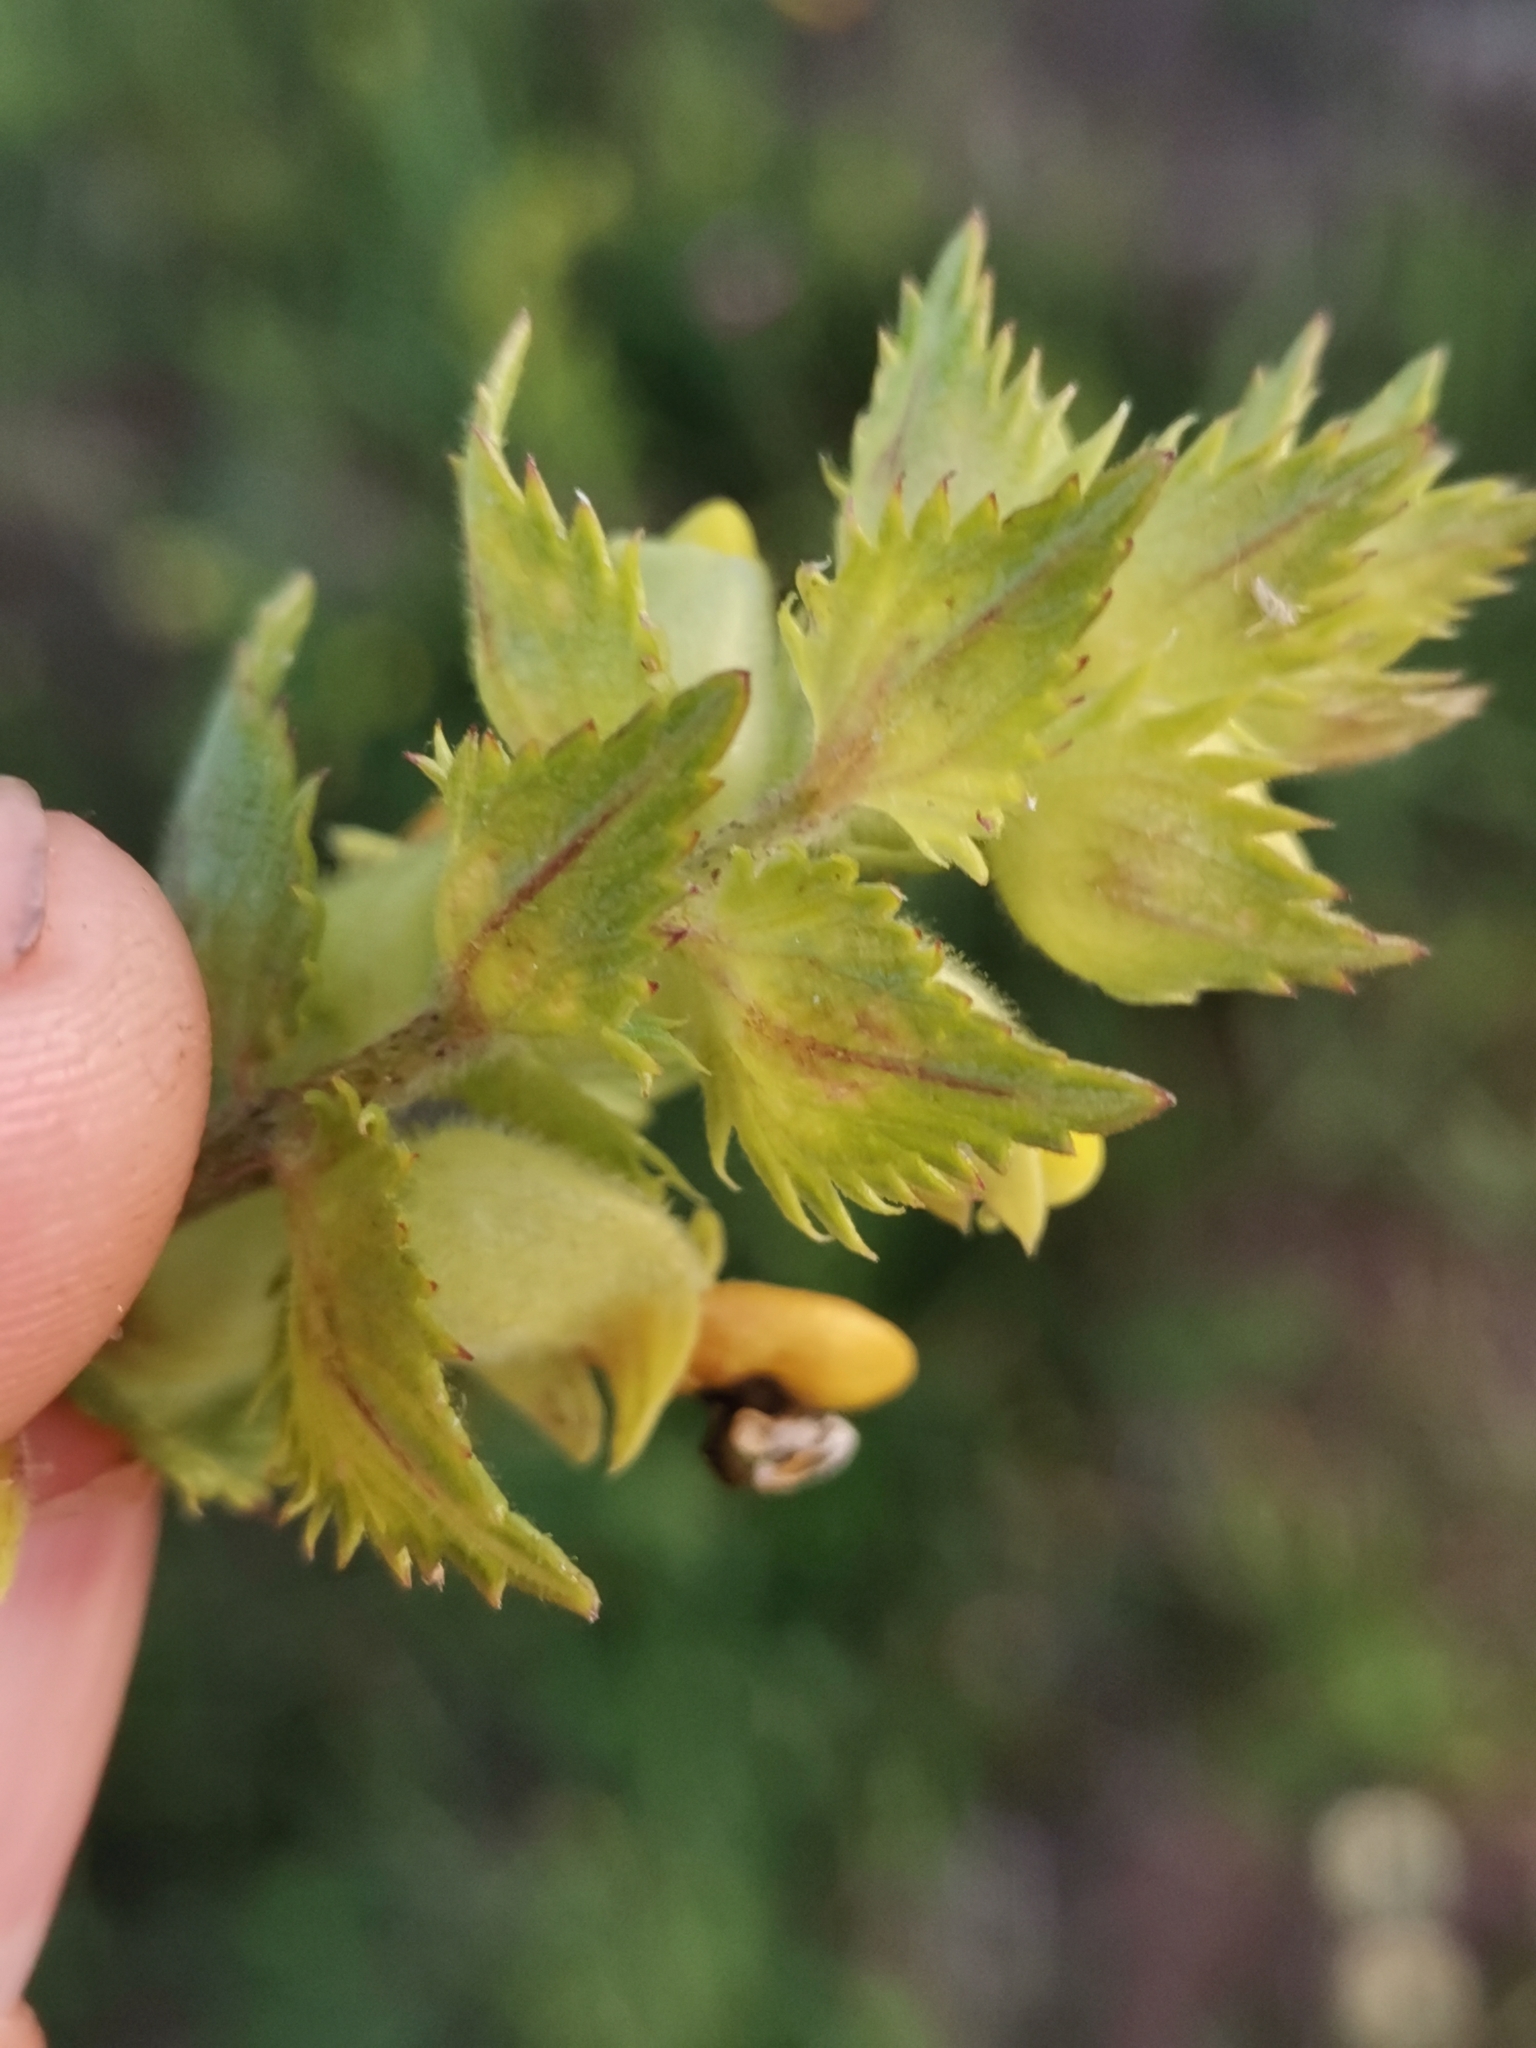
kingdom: Plantae
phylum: Tracheophyta
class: Magnoliopsida
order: Lamiales
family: Orobanchaceae
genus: Rhinanthus
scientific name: Rhinanthus alectorolophus
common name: Greater yellow-rattle
